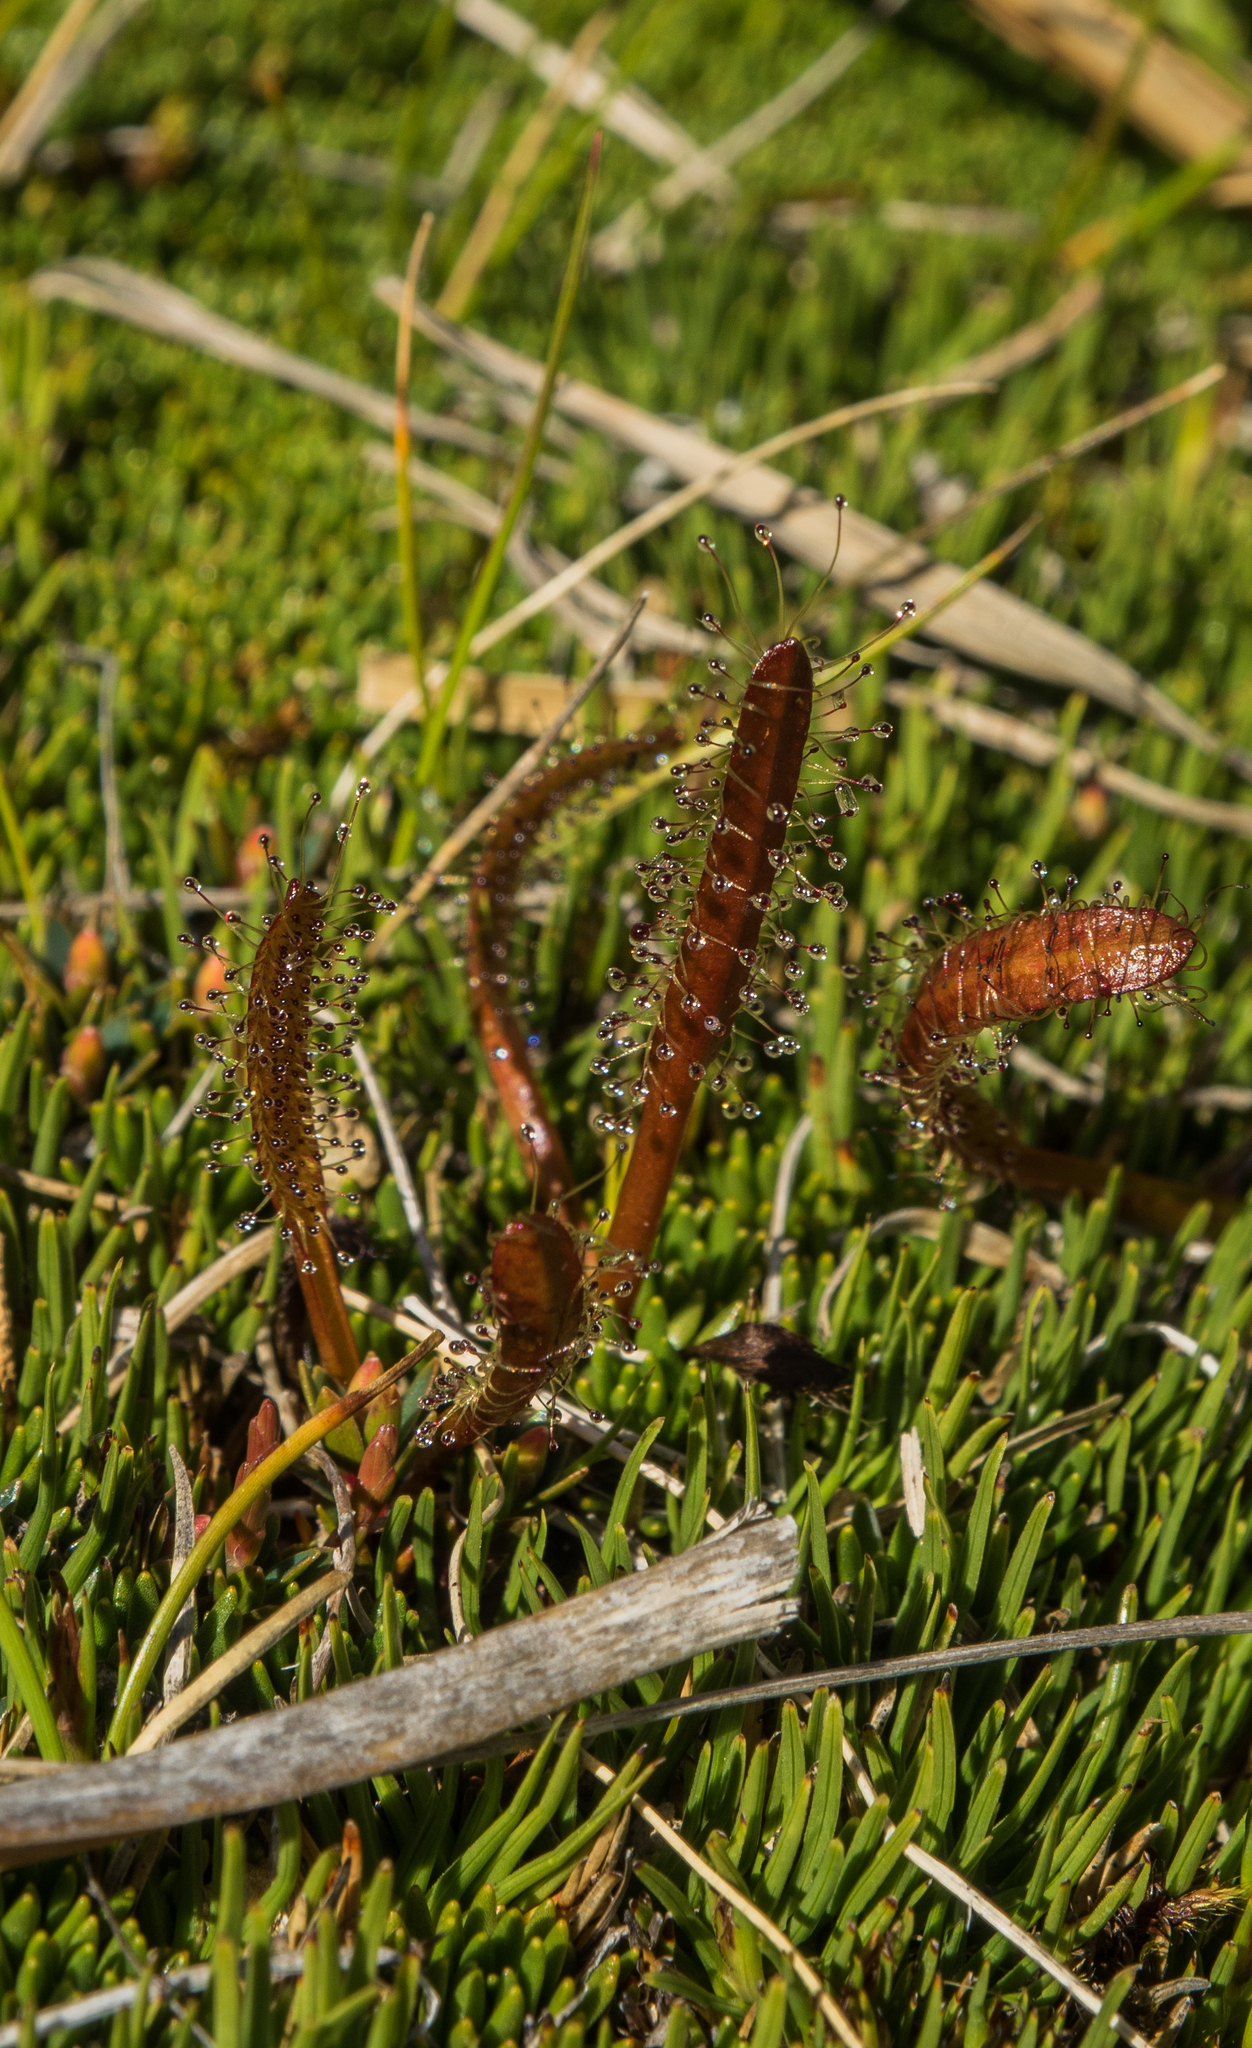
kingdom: Plantae
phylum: Tracheophyta
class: Magnoliopsida
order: Caryophyllales
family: Droseraceae
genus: Drosera
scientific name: Drosera arcturi
